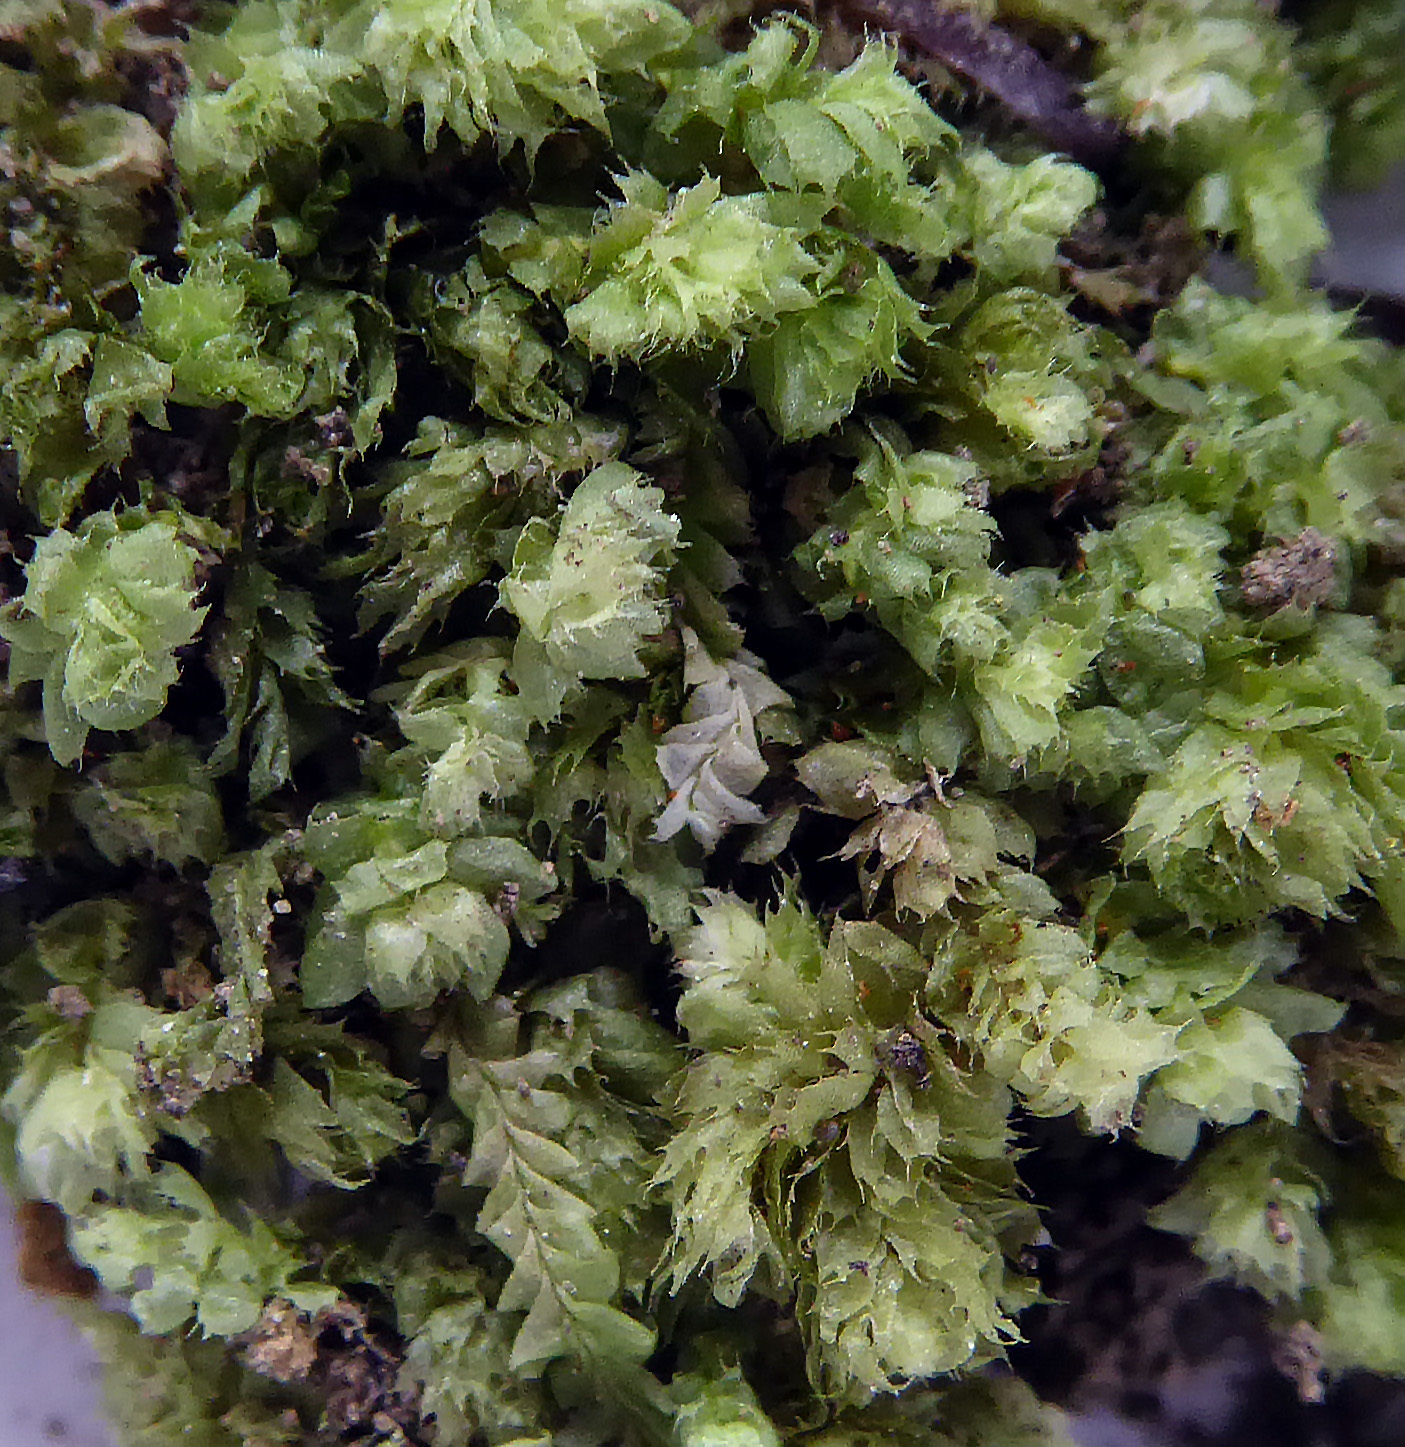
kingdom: Plantae
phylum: Marchantiophyta
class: Jungermanniopsida
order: Jungermanniales
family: Balantiopsidaceae
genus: Balantiopsis
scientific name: Balantiopsis diplophylla
